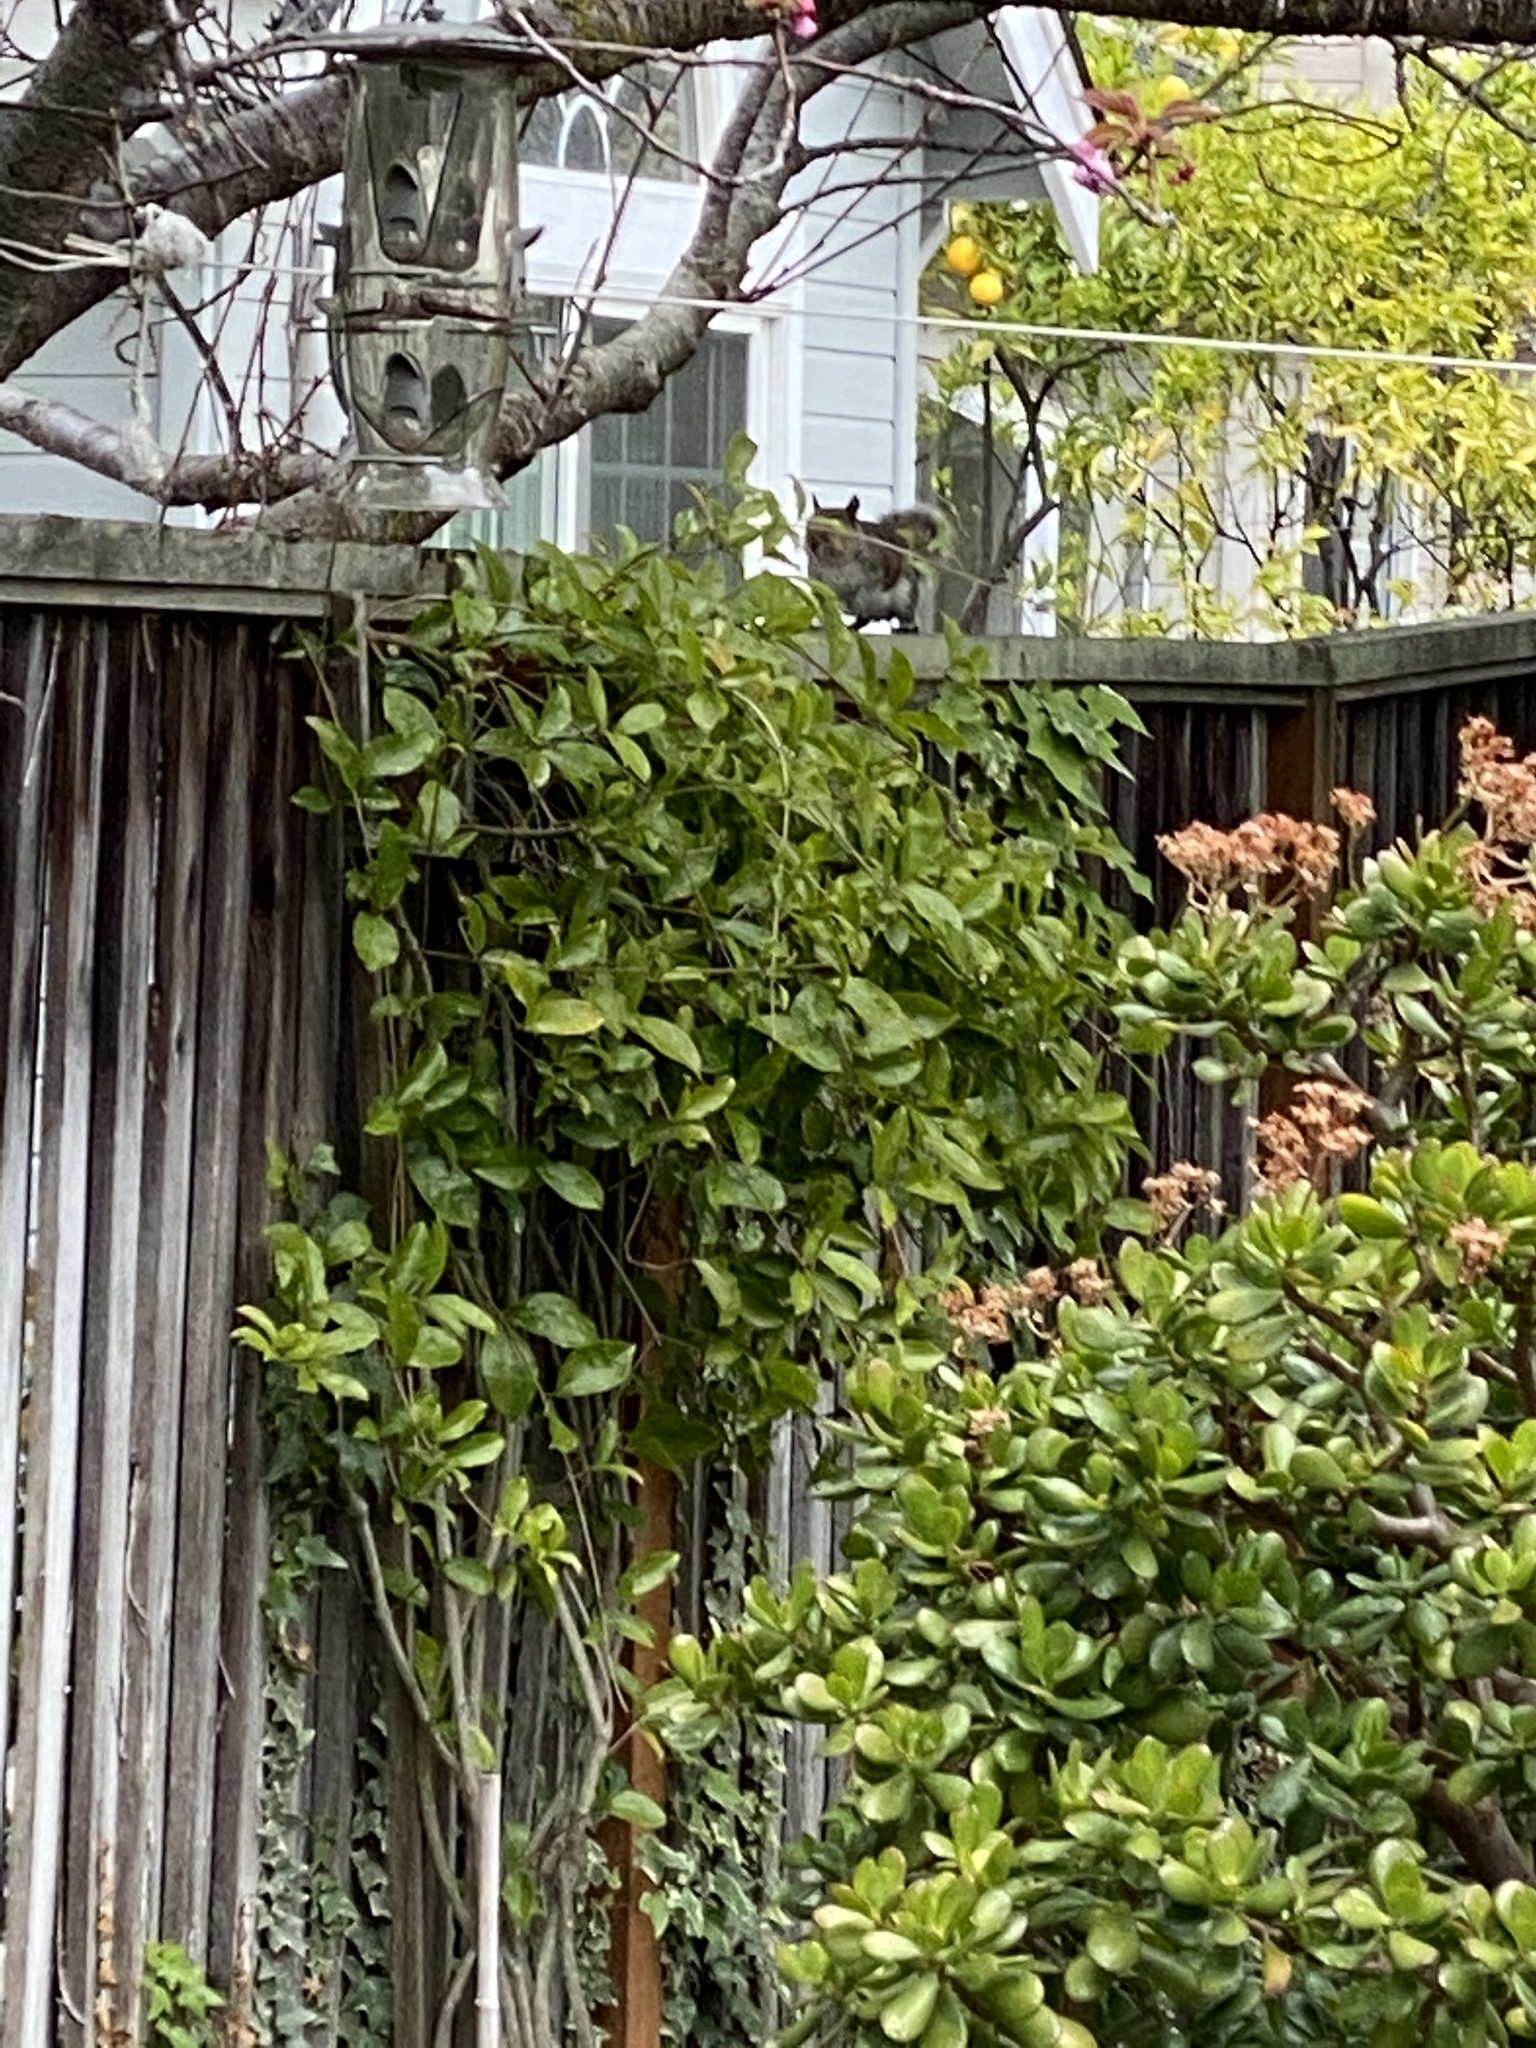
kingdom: Animalia
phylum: Chordata
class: Mammalia
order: Rodentia
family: Sciuridae
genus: Sciurus
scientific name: Sciurus carolinensis
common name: Eastern gray squirrel
